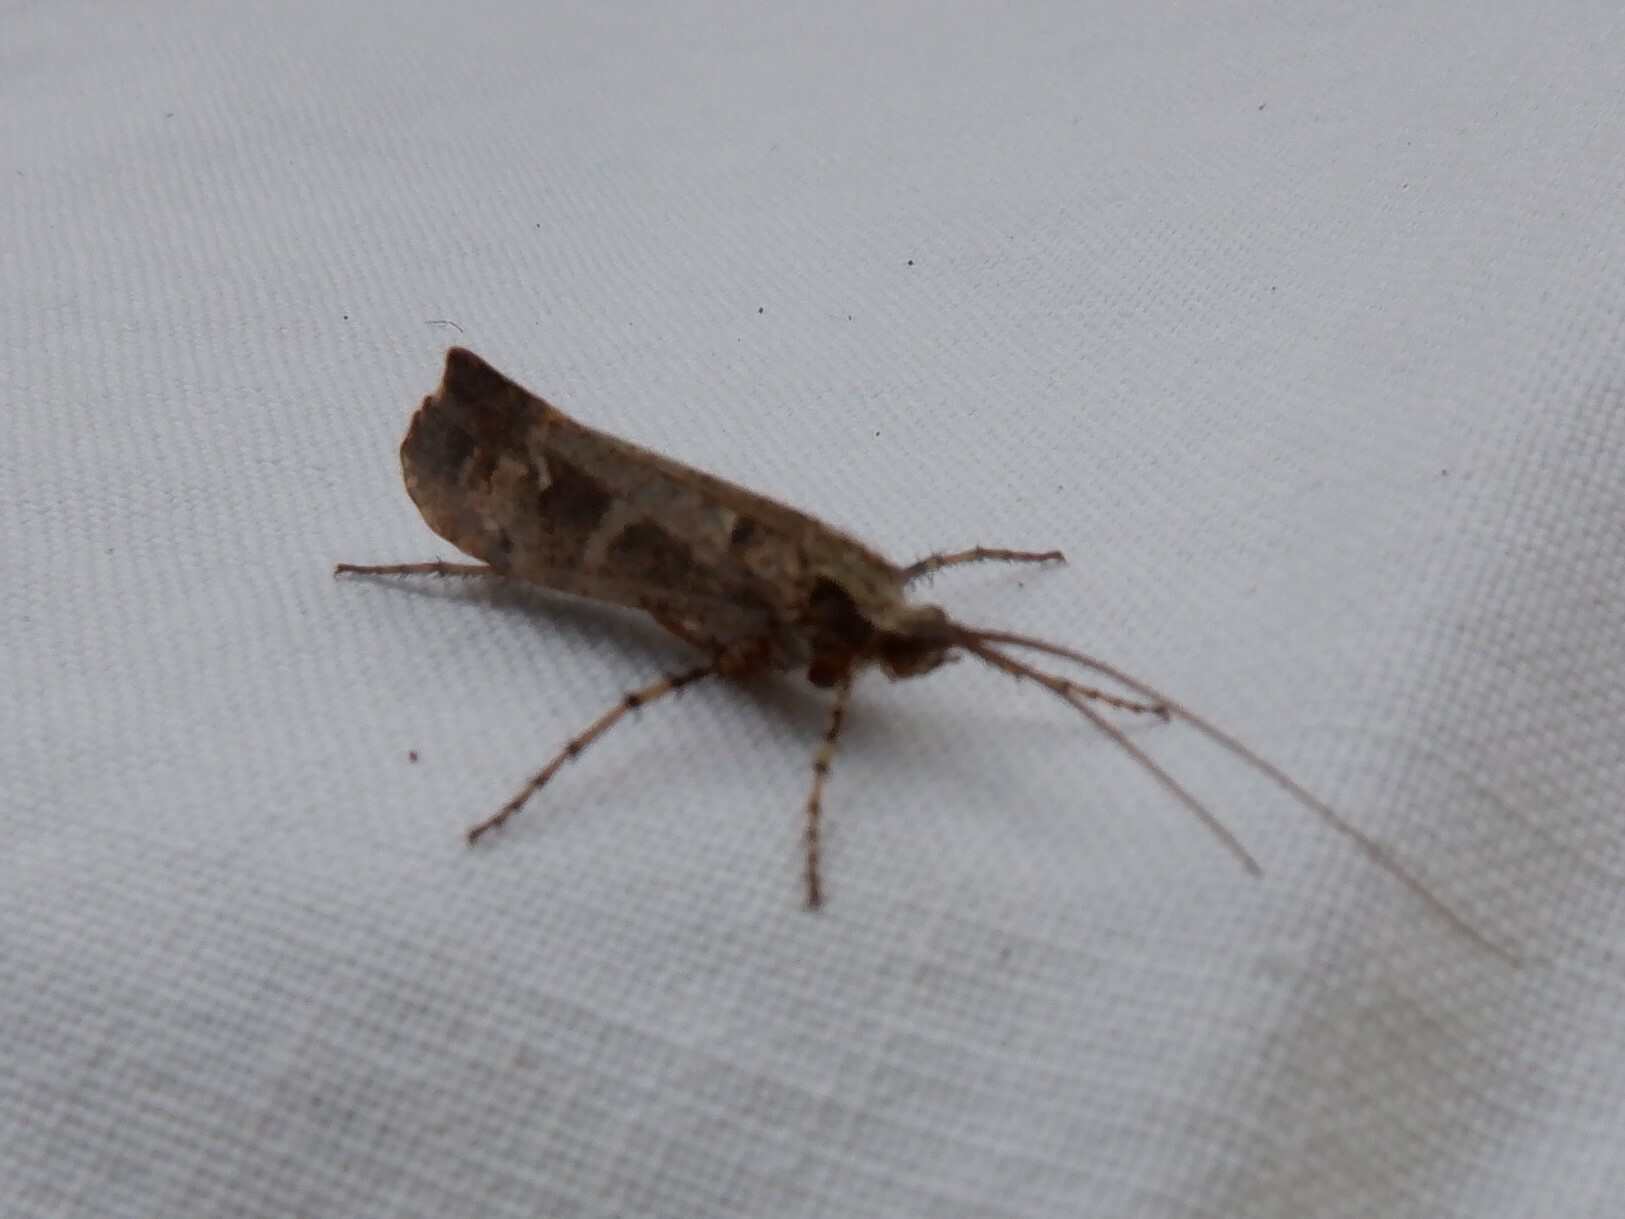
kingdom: Animalia
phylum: Arthropoda
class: Insecta
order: Trichoptera
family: Limnephilidae
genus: Glyphotaelius
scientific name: Glyphotaelius pellucidus
